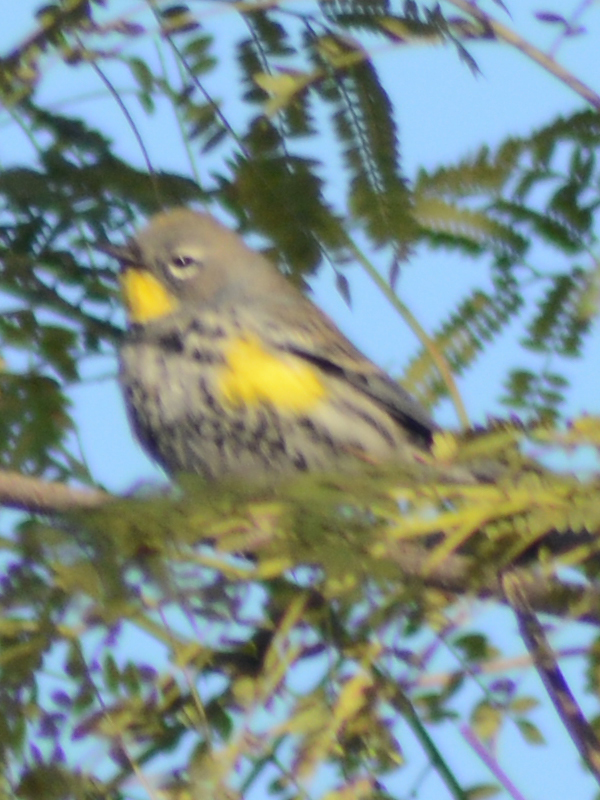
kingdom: Animalia
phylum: Chordata
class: Aves
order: Passeriformes
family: Parulidae
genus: Setophaga
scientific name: Setophaga coronata
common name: Myrtle warbler
